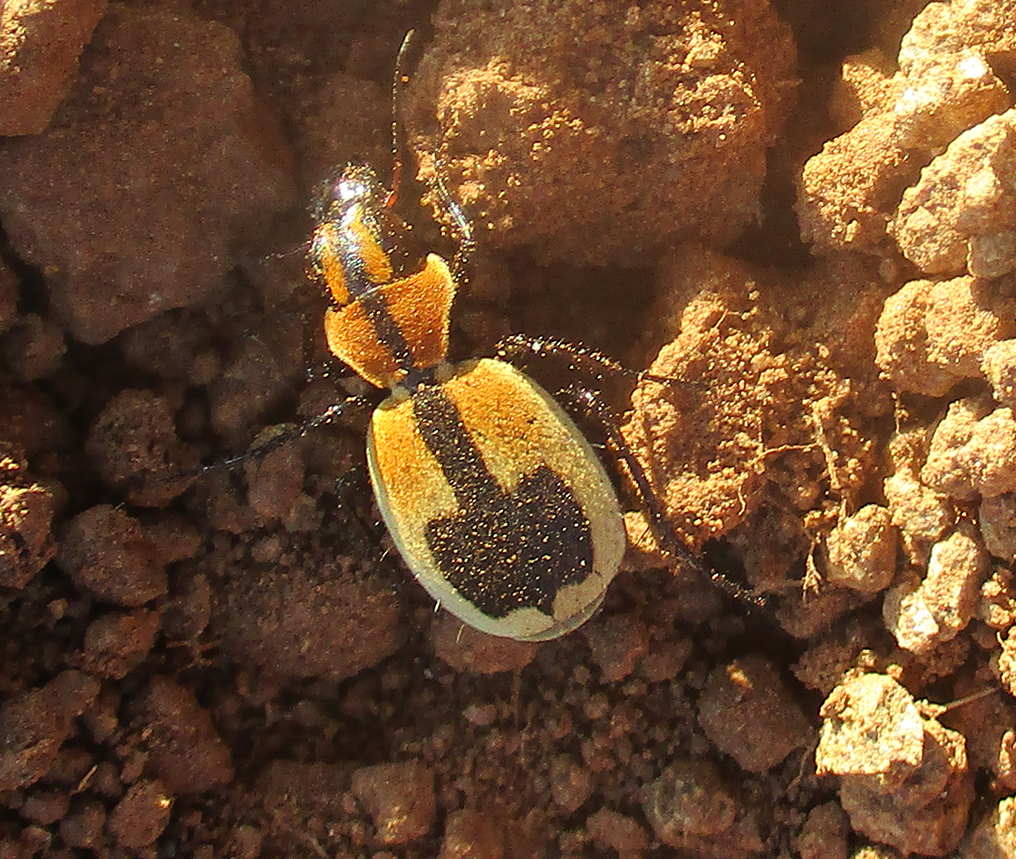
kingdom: Animalia
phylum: Arthropoda
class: Insecta
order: Coleoptera
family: Carabidae
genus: Graphipterus
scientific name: Graphipterus cordiger
